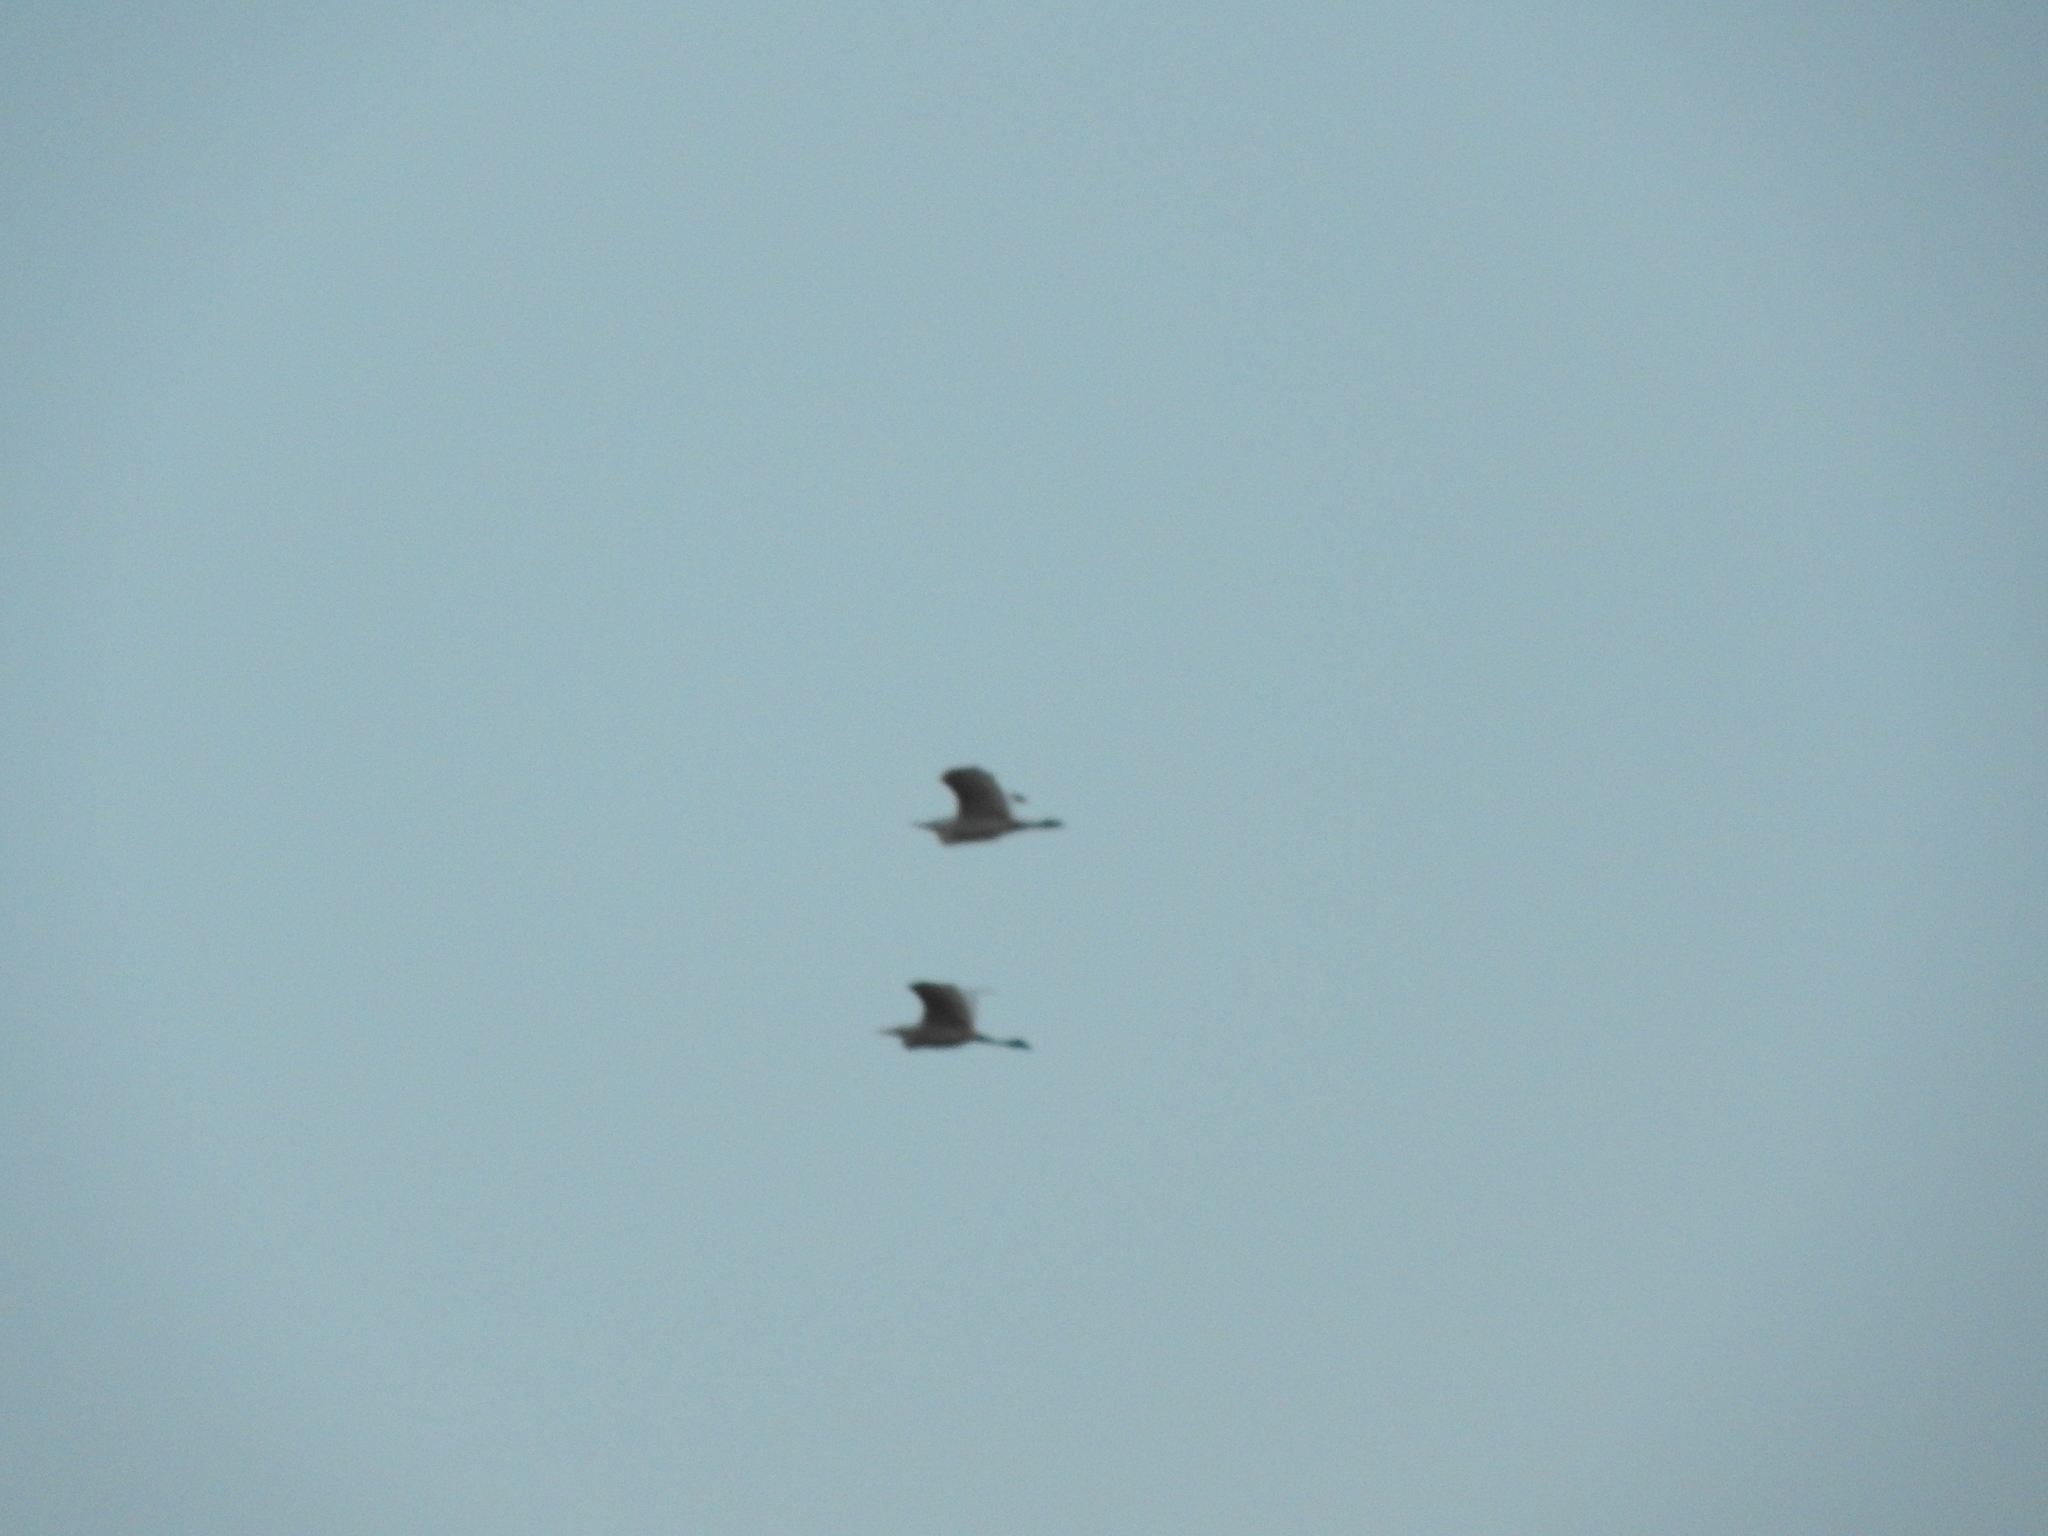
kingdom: Animalia
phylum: Chordata
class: Aves
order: Pelecaniformes
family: Ardeidae
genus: Bubulcus
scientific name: Bubulcus ibis
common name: Cattle egret
